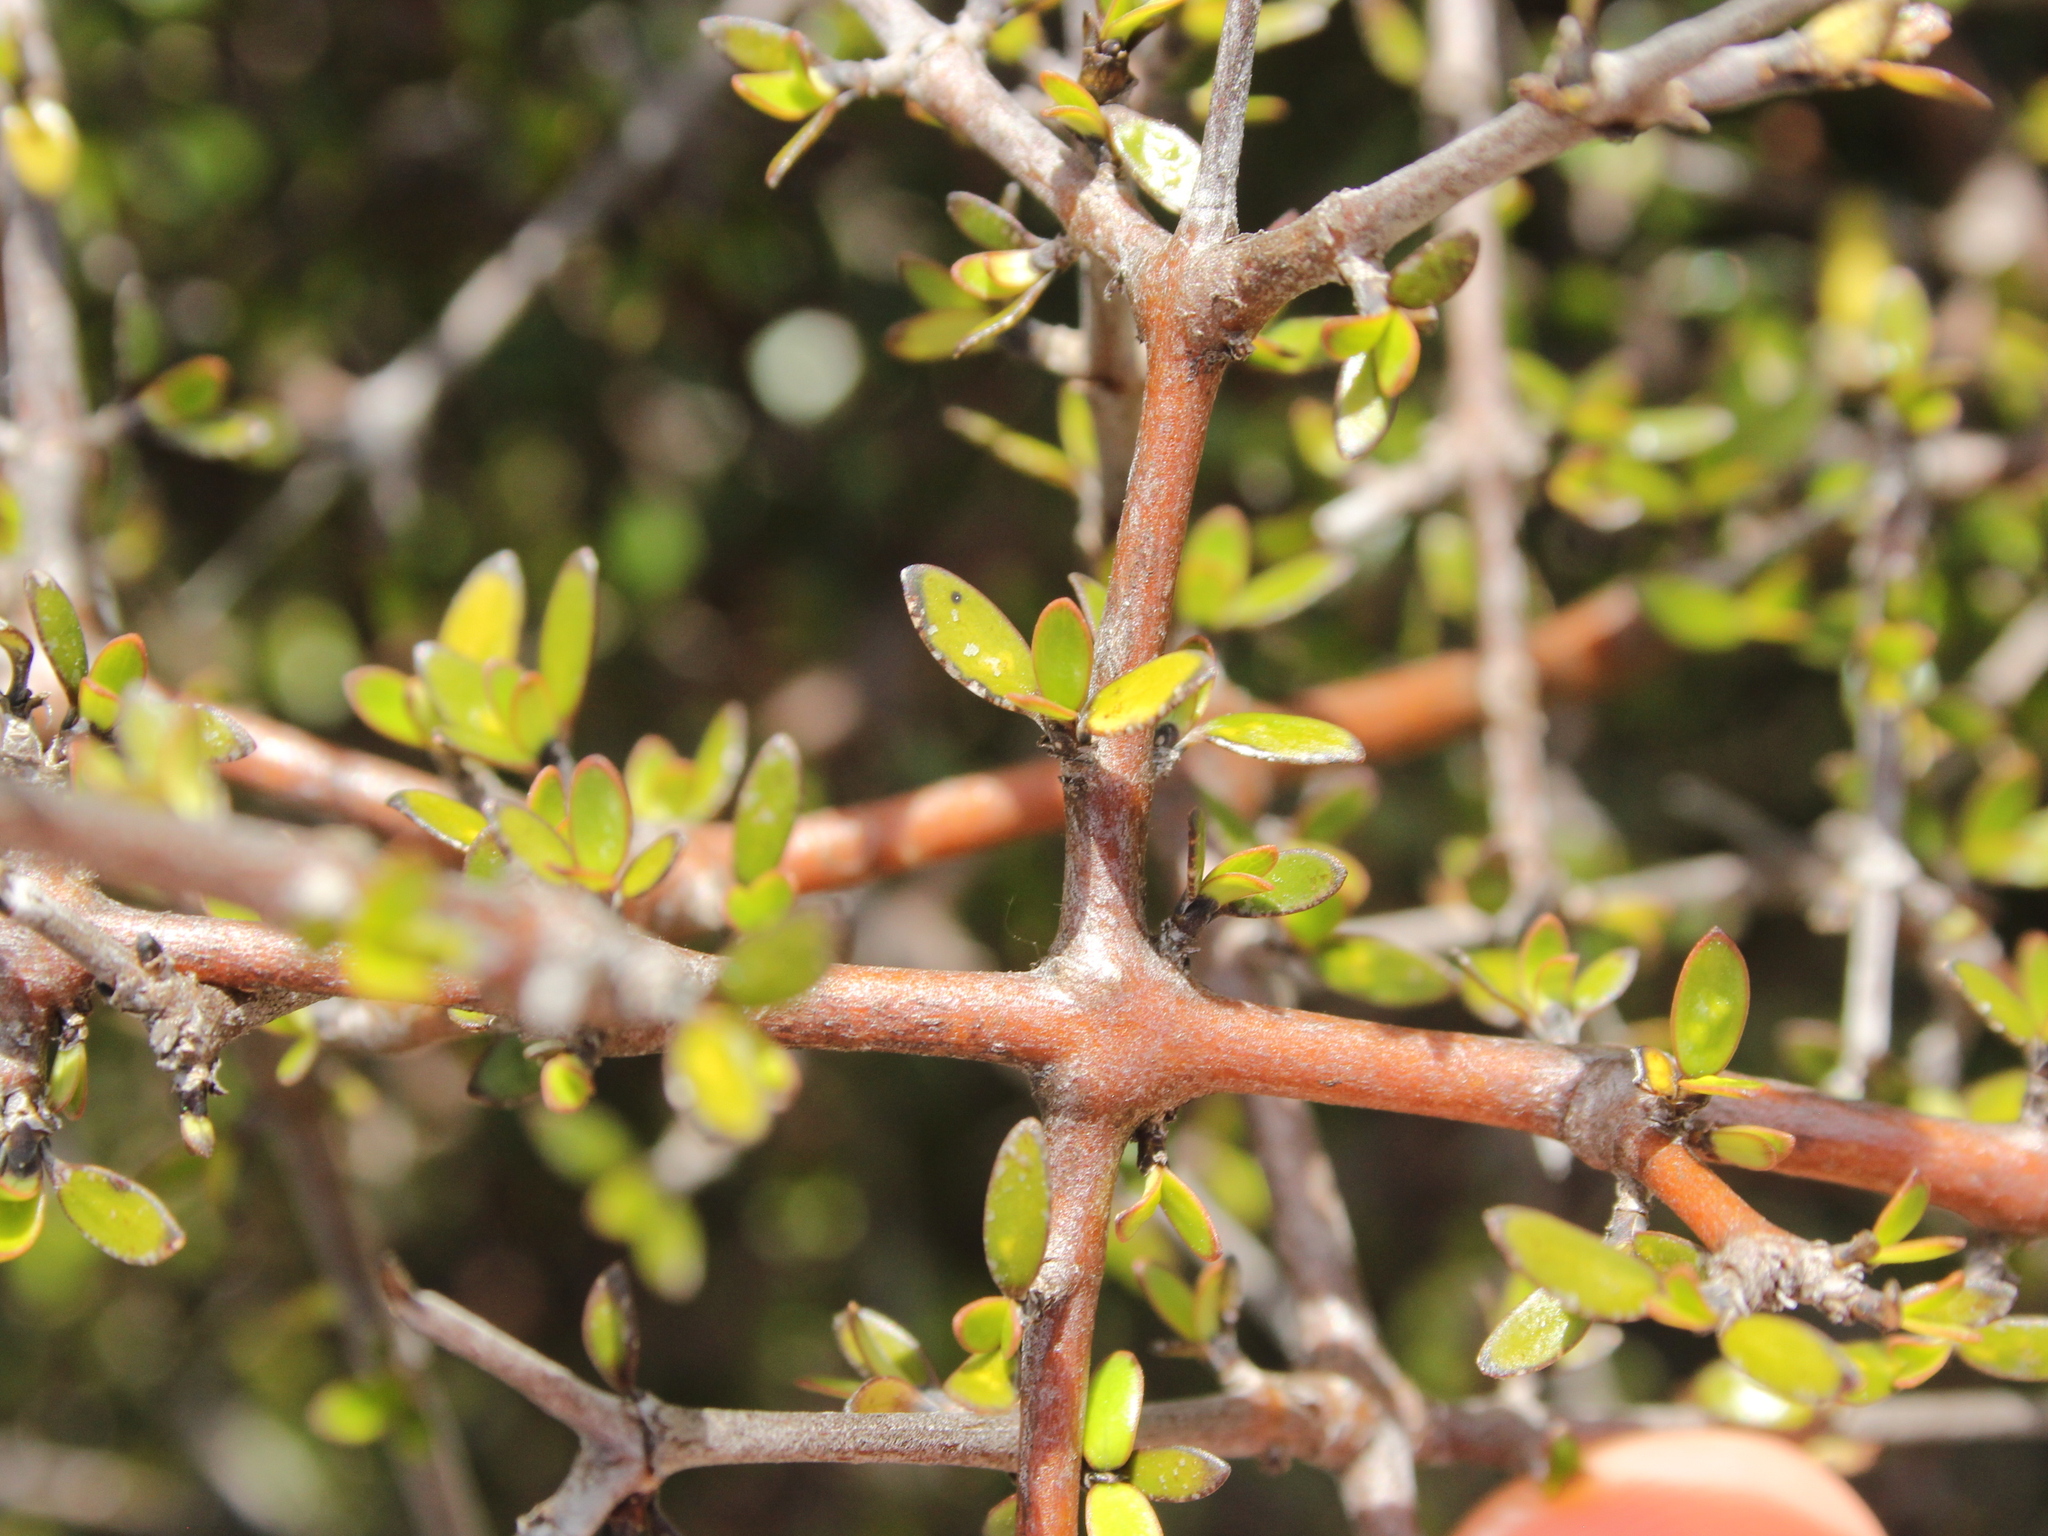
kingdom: Plantae
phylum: Tracheophyta
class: Magnoliopsida
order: Gentianales
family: Rubiaceae
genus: Coprosma
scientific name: Coprosma propinqua
